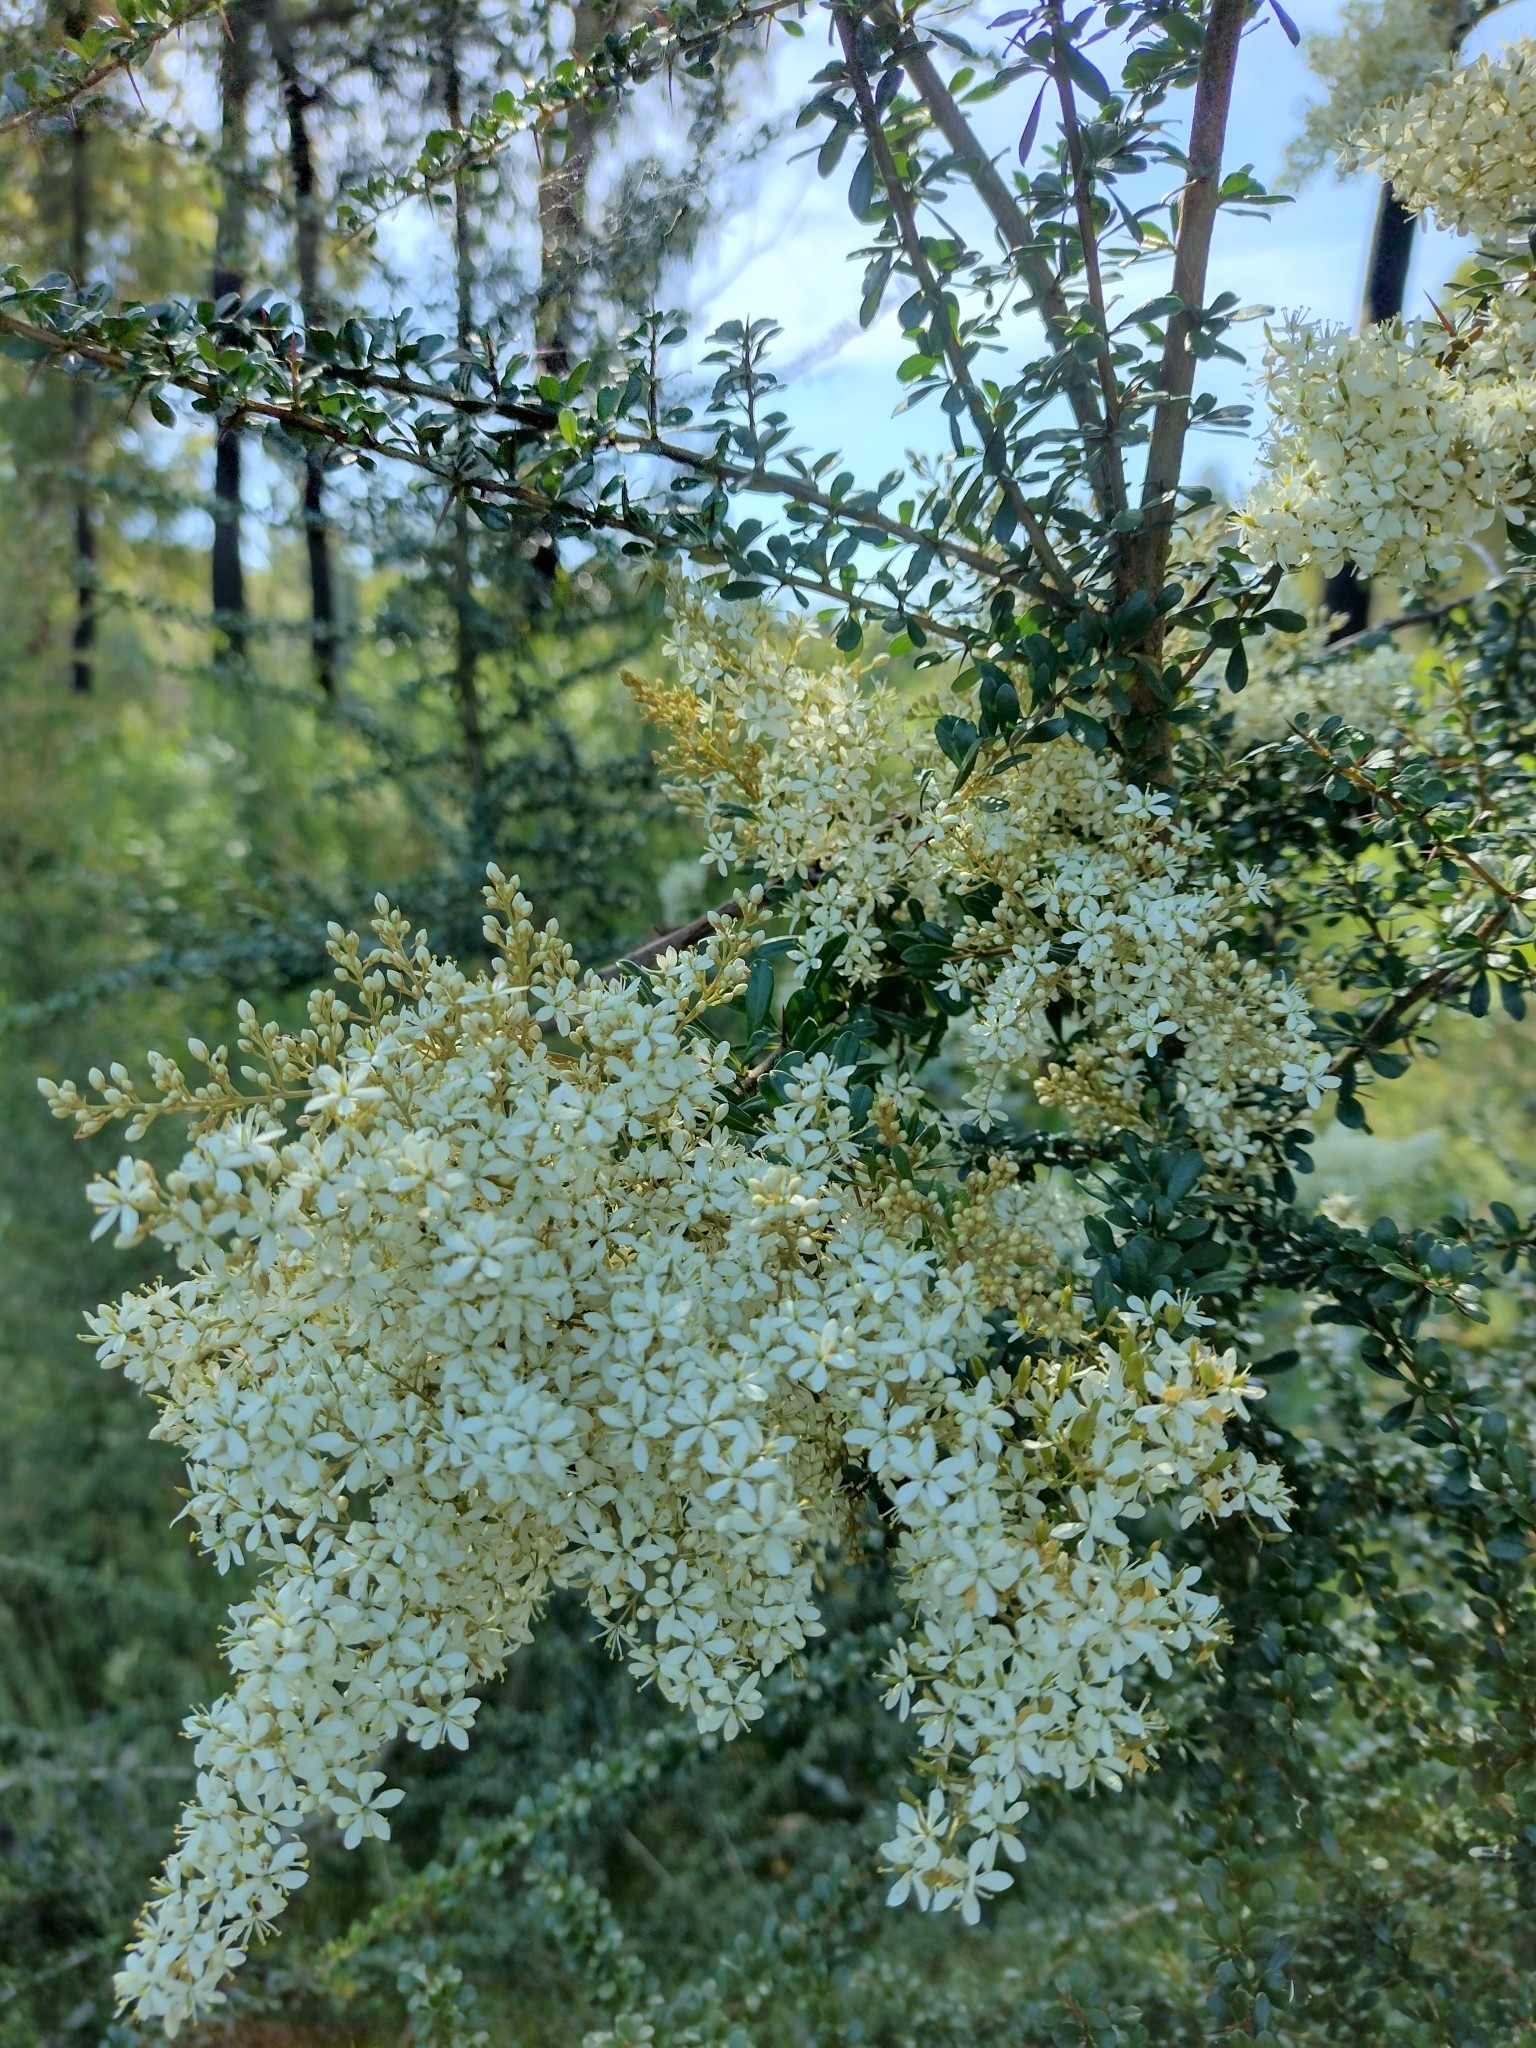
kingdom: Plantae
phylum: Tracheophyta
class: Magnoliopsida
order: Apiales
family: Pittosporaceae
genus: Bursaria
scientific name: Bursaria spinosa
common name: Australian blackthorn
